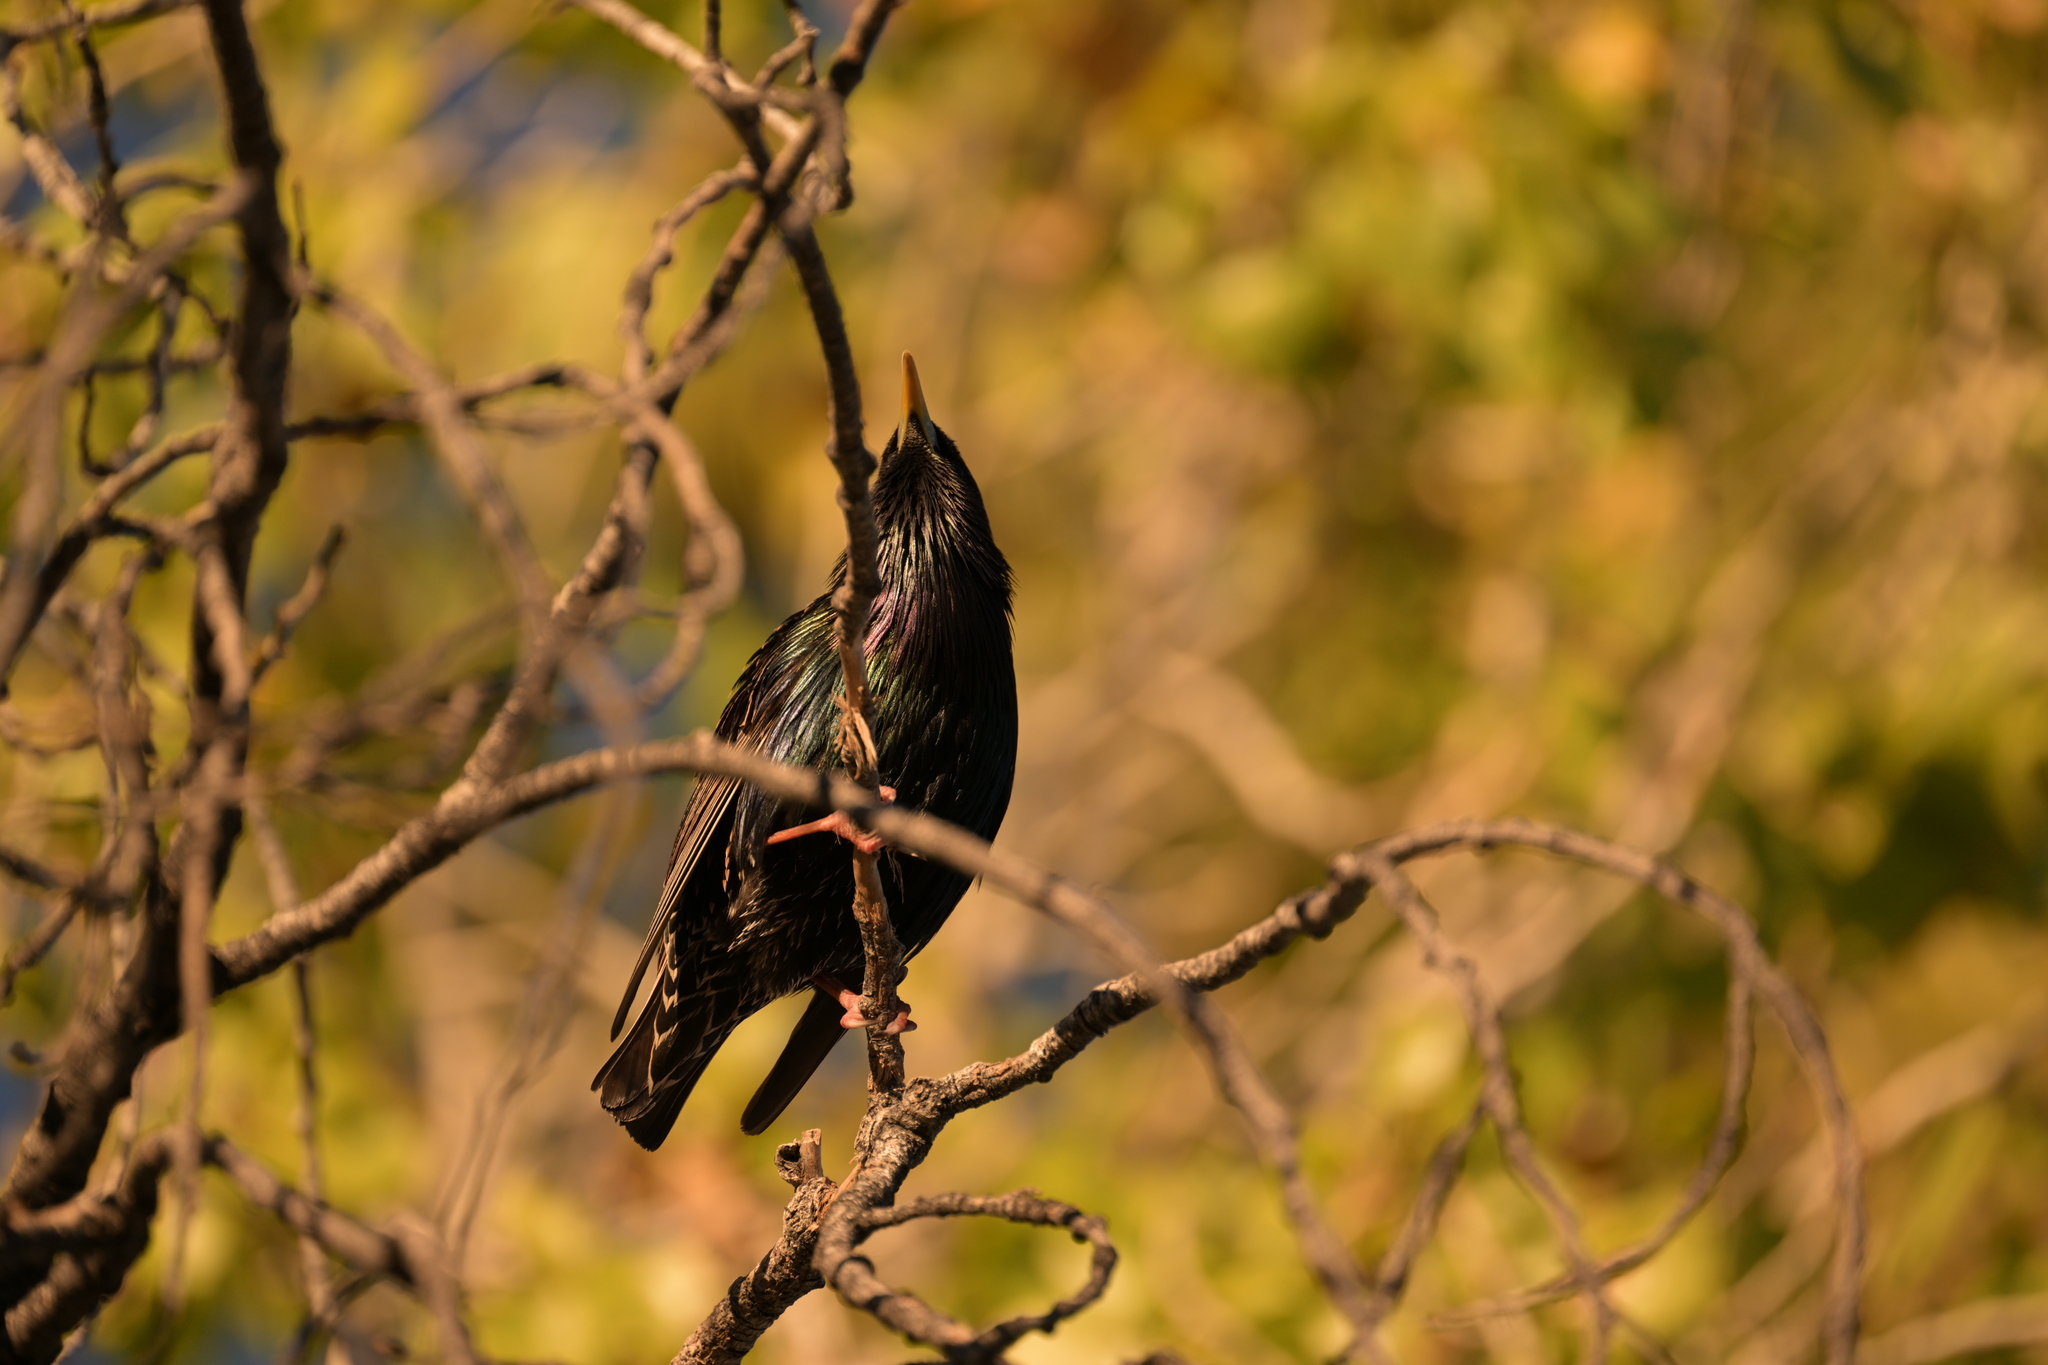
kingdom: Animalia
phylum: Chordata
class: Aves
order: Passeriformes
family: Sturnidae
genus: Sturnus
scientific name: Sturnus vulgaris
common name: Common starling
